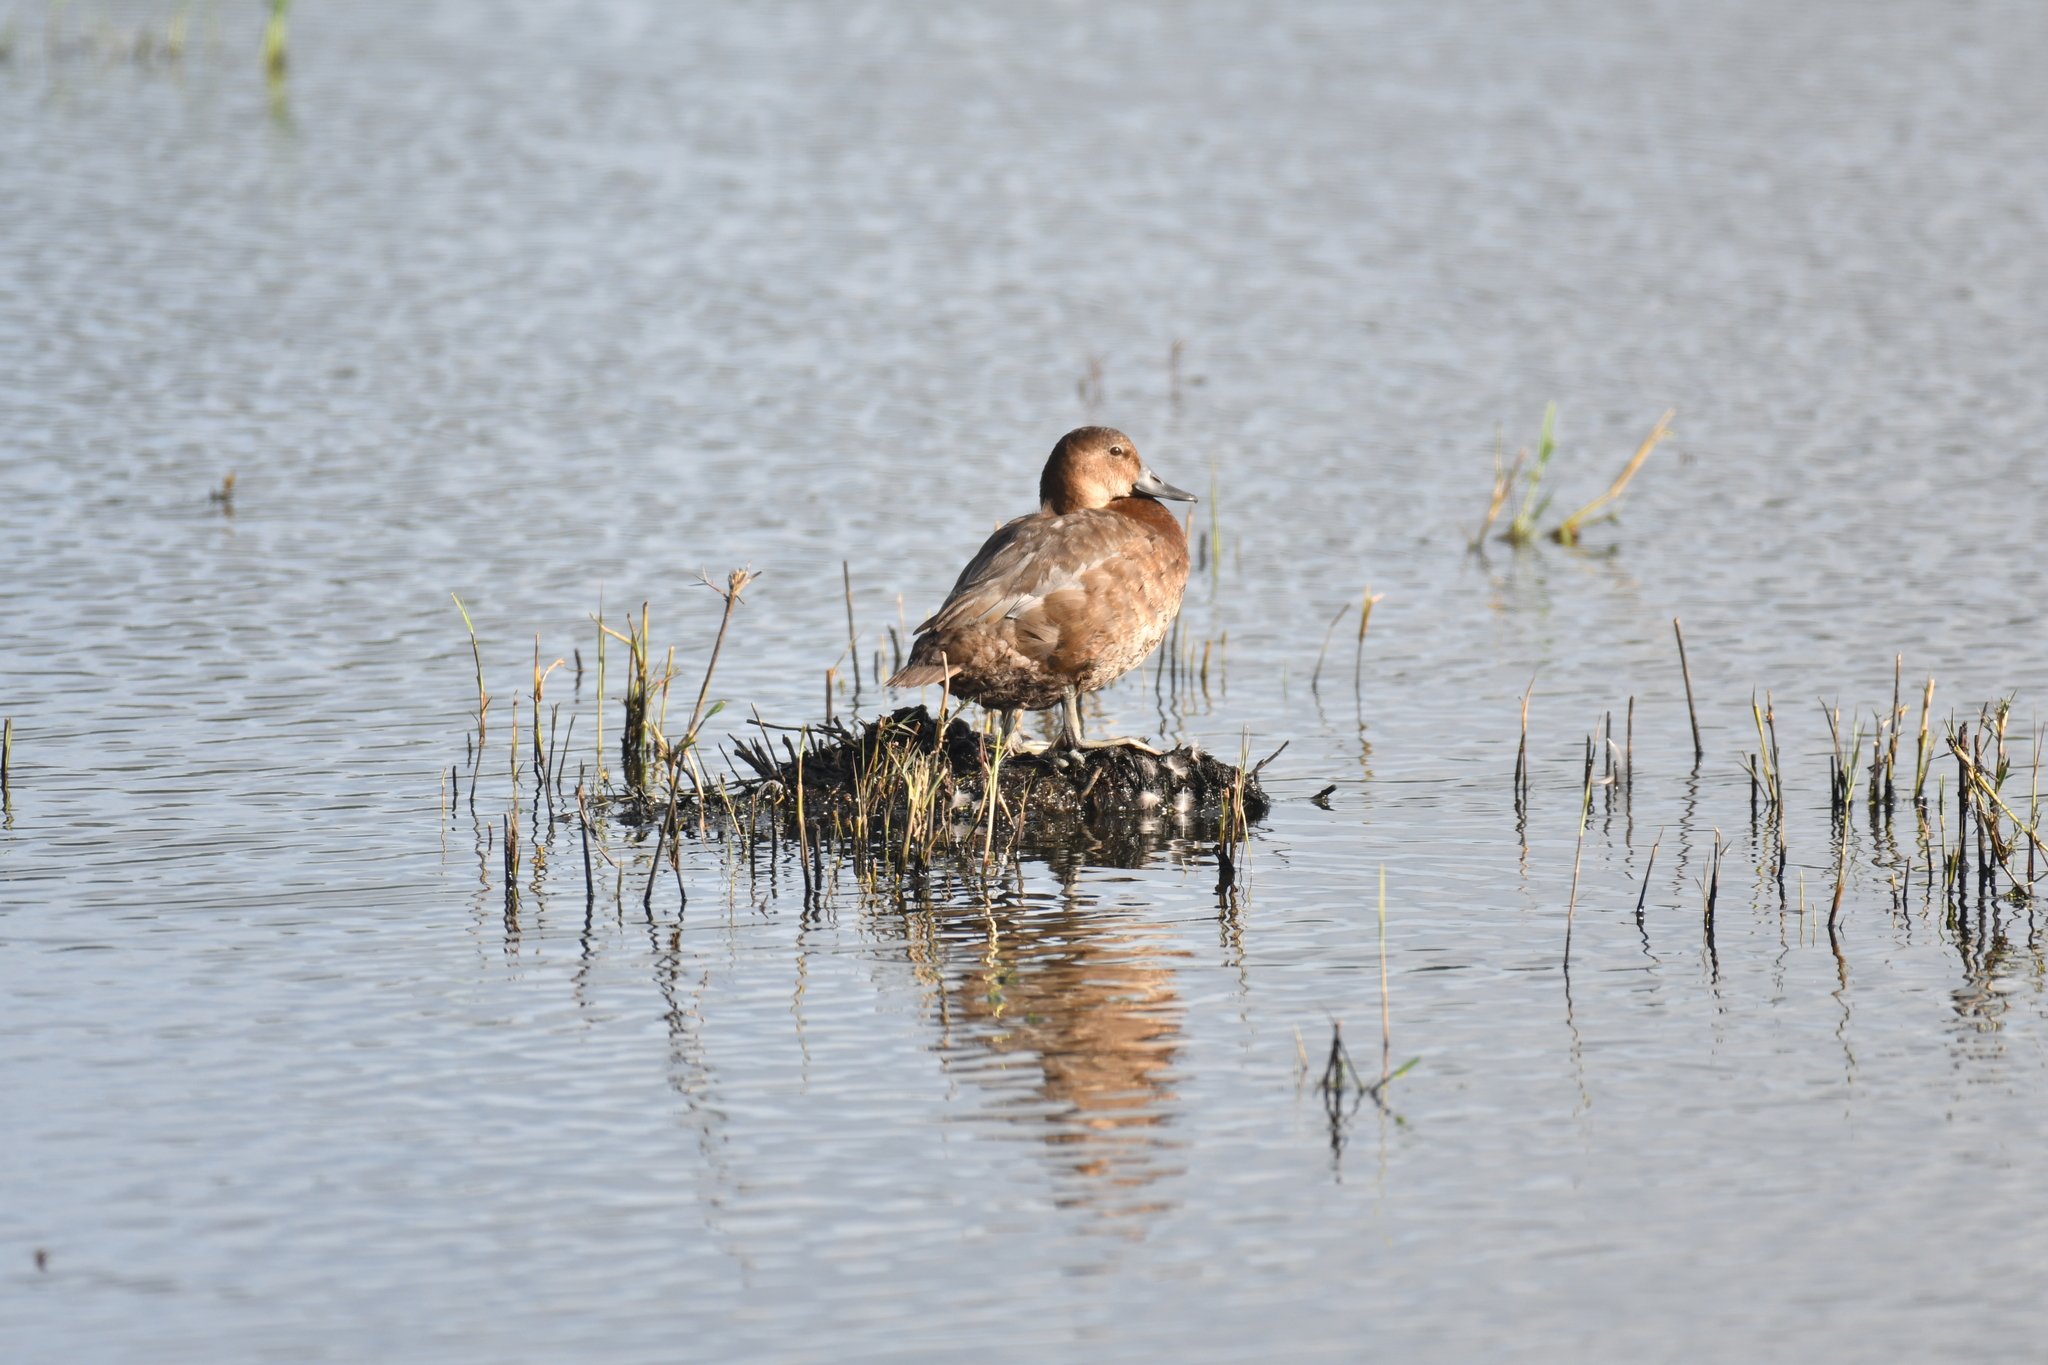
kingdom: Animalia
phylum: Chordata
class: Aves
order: Anseriformes
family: Anatidae
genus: Aythya
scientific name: Aythya ferina
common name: Common pochard
